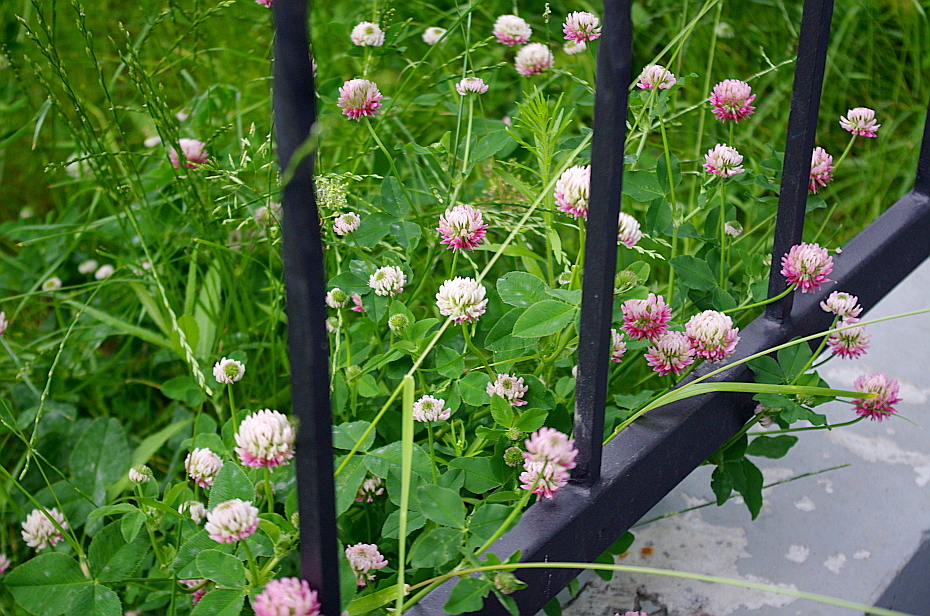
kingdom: Plantae
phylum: Tracheophyta
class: Magnoliopsida
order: Fabales
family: Fabaceae
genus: Trifolium
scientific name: Trifolium hybridum
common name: Alsike clover
